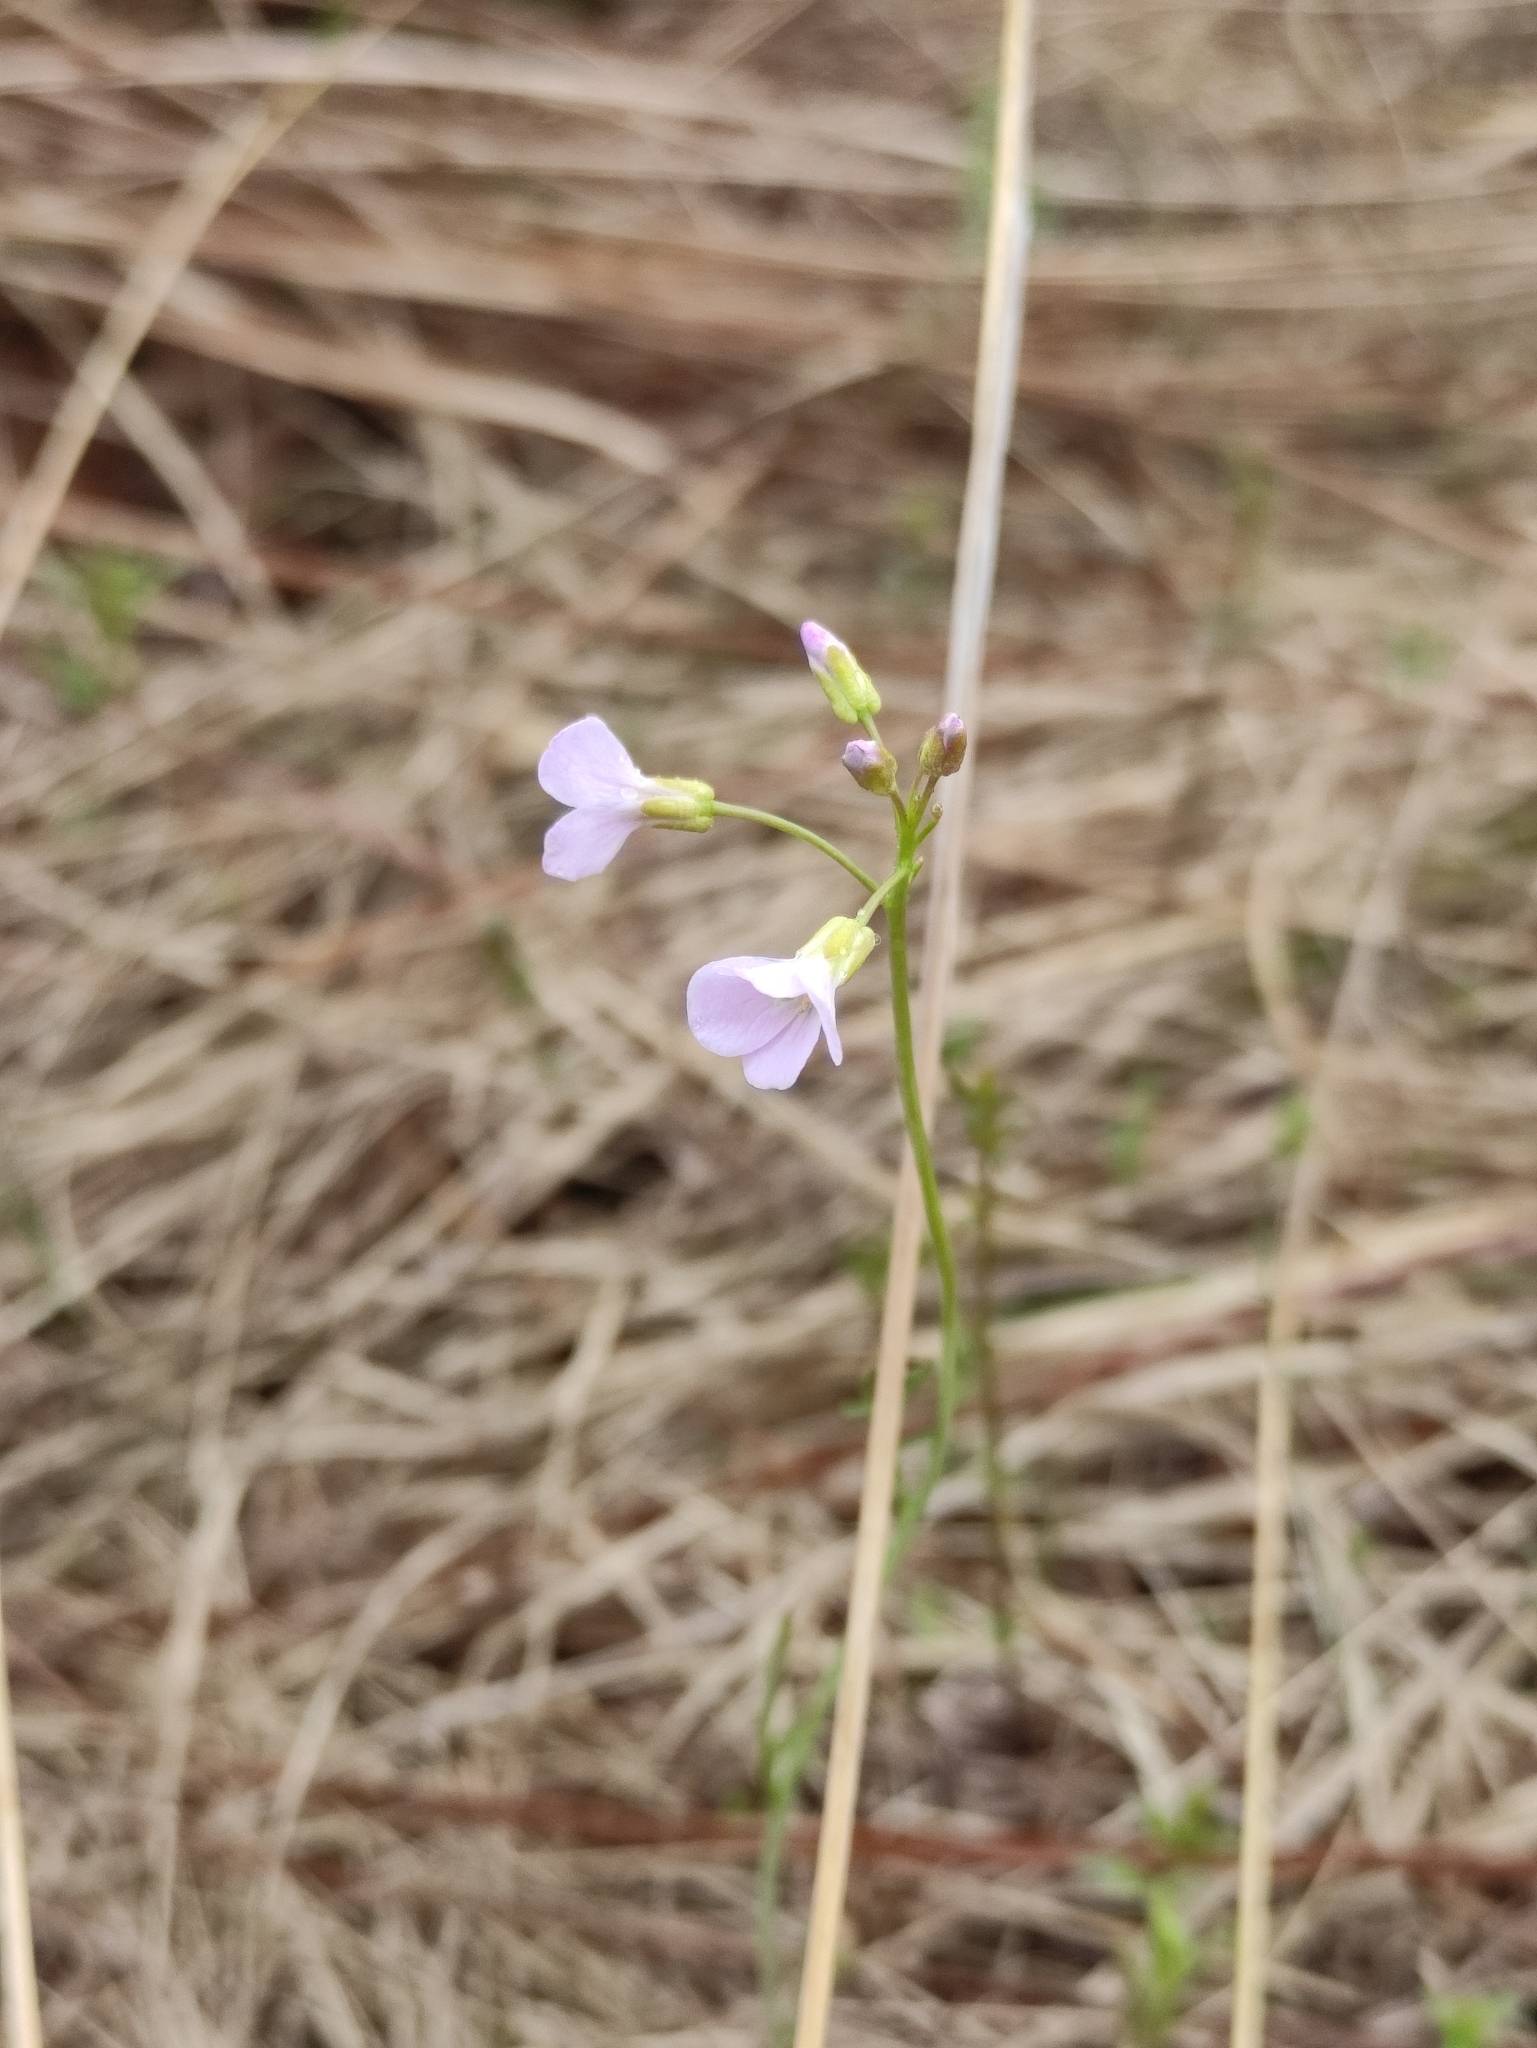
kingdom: Plantae
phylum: Tracheophyta
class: Magnoliopsida
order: Brassicales
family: Brassicaceae
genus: Cardamine
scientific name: Cardamine trifida
